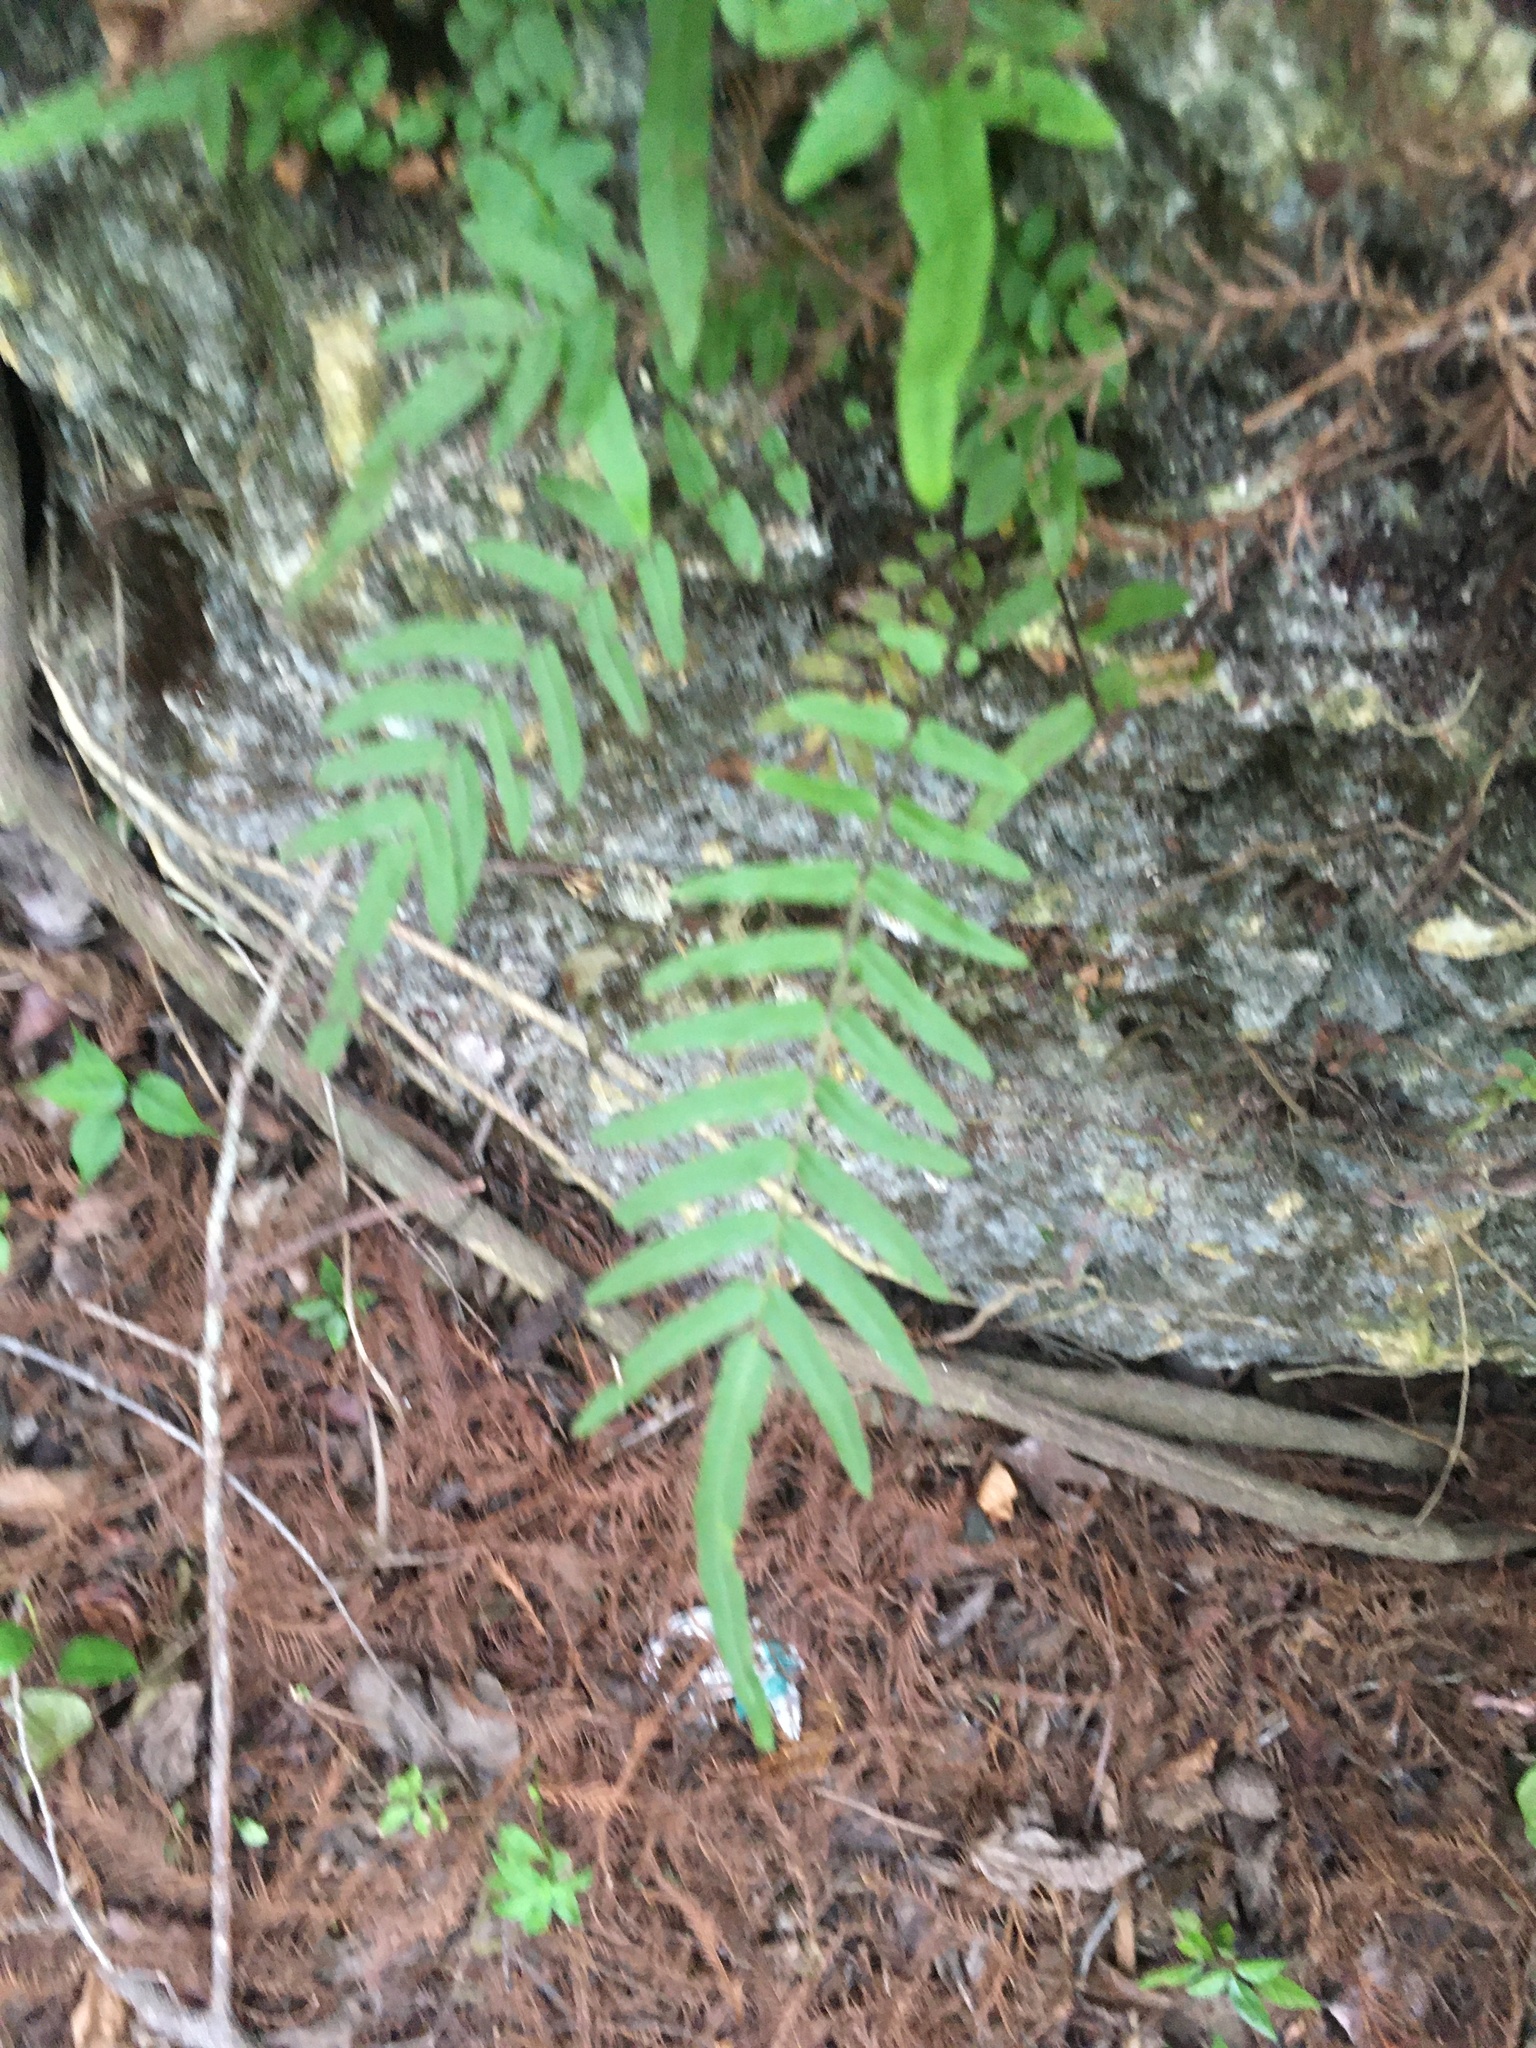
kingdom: Plantae
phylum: Tracheophyta
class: Polypodiopsida
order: Polypodiales
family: Pteridaceae
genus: Pteris
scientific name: Pteris vittata
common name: Ladder brake
